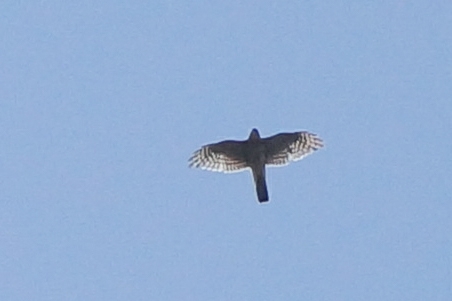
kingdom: Animalia
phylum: Chordata
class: Aves
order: Accipitriformes
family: Accipitridae
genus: Accipiter
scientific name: Accipiter nisus
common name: Eurasian sparrowhawk
